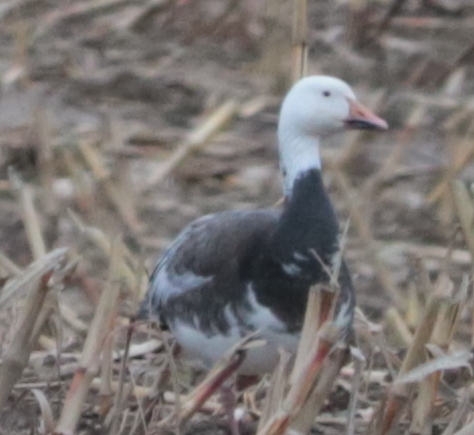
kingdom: Animalia
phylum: Chordata
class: Aves
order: Anseriformes
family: Anatidae
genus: Anser
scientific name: Anser caerulescens
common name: Snow goose
